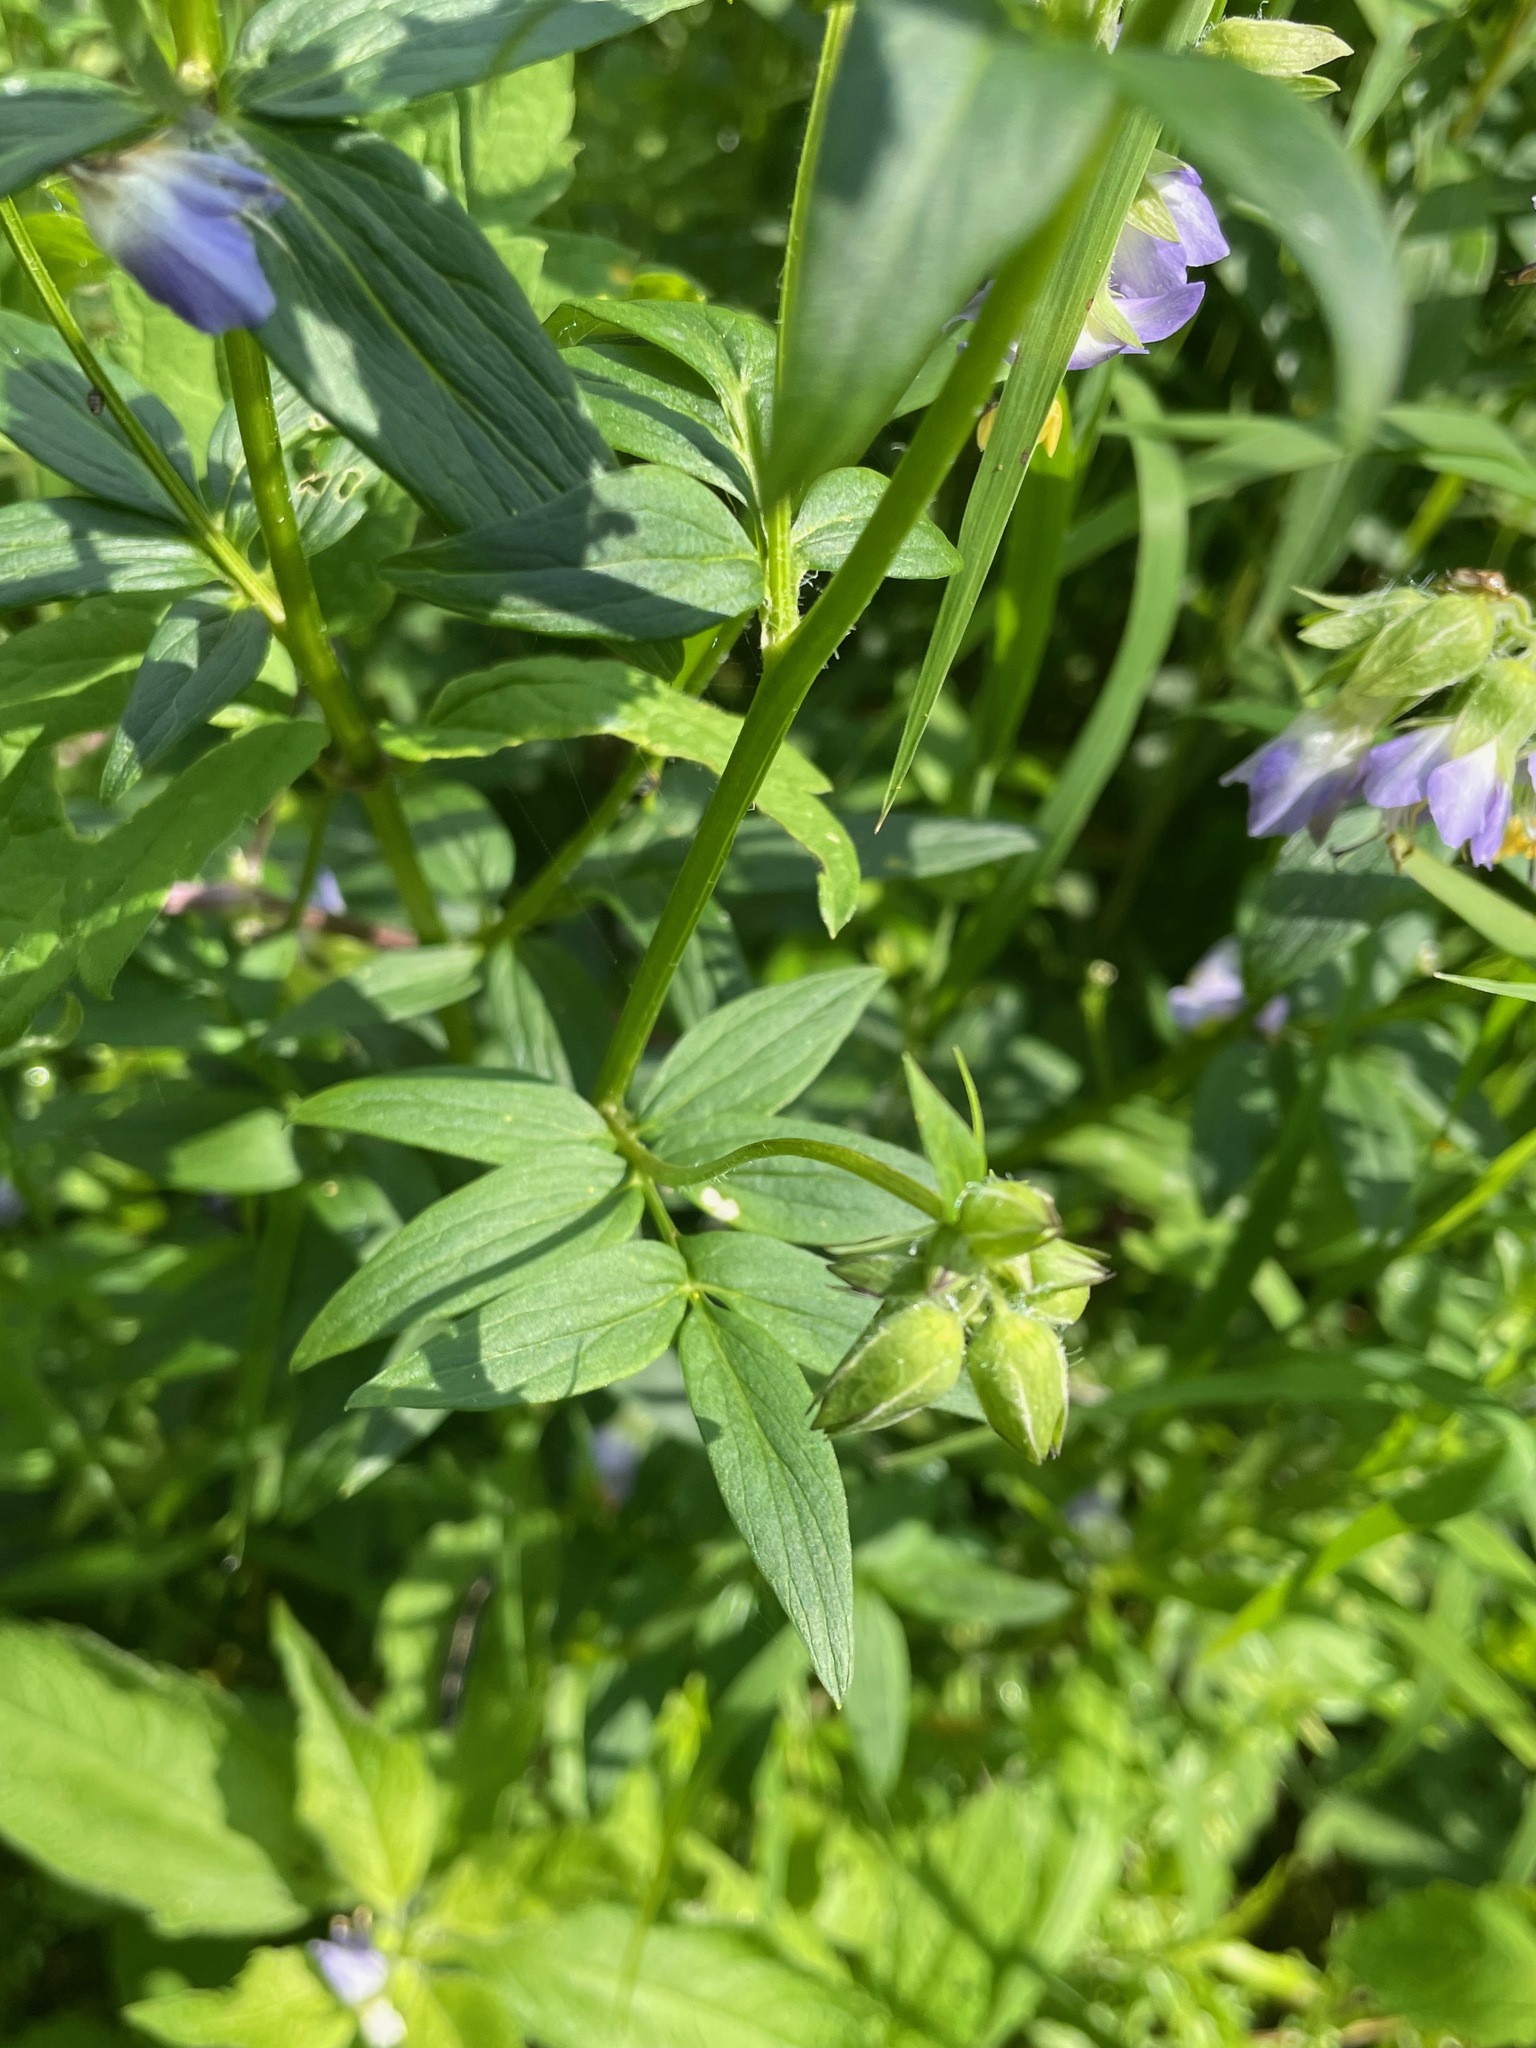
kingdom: Plantae
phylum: Tracheophyta
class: Magnoliopsida
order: Ericales
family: Polemoniaceae
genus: Polemonium
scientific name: Polemonium vanbruntiae
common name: Bog jacob's-ladder
